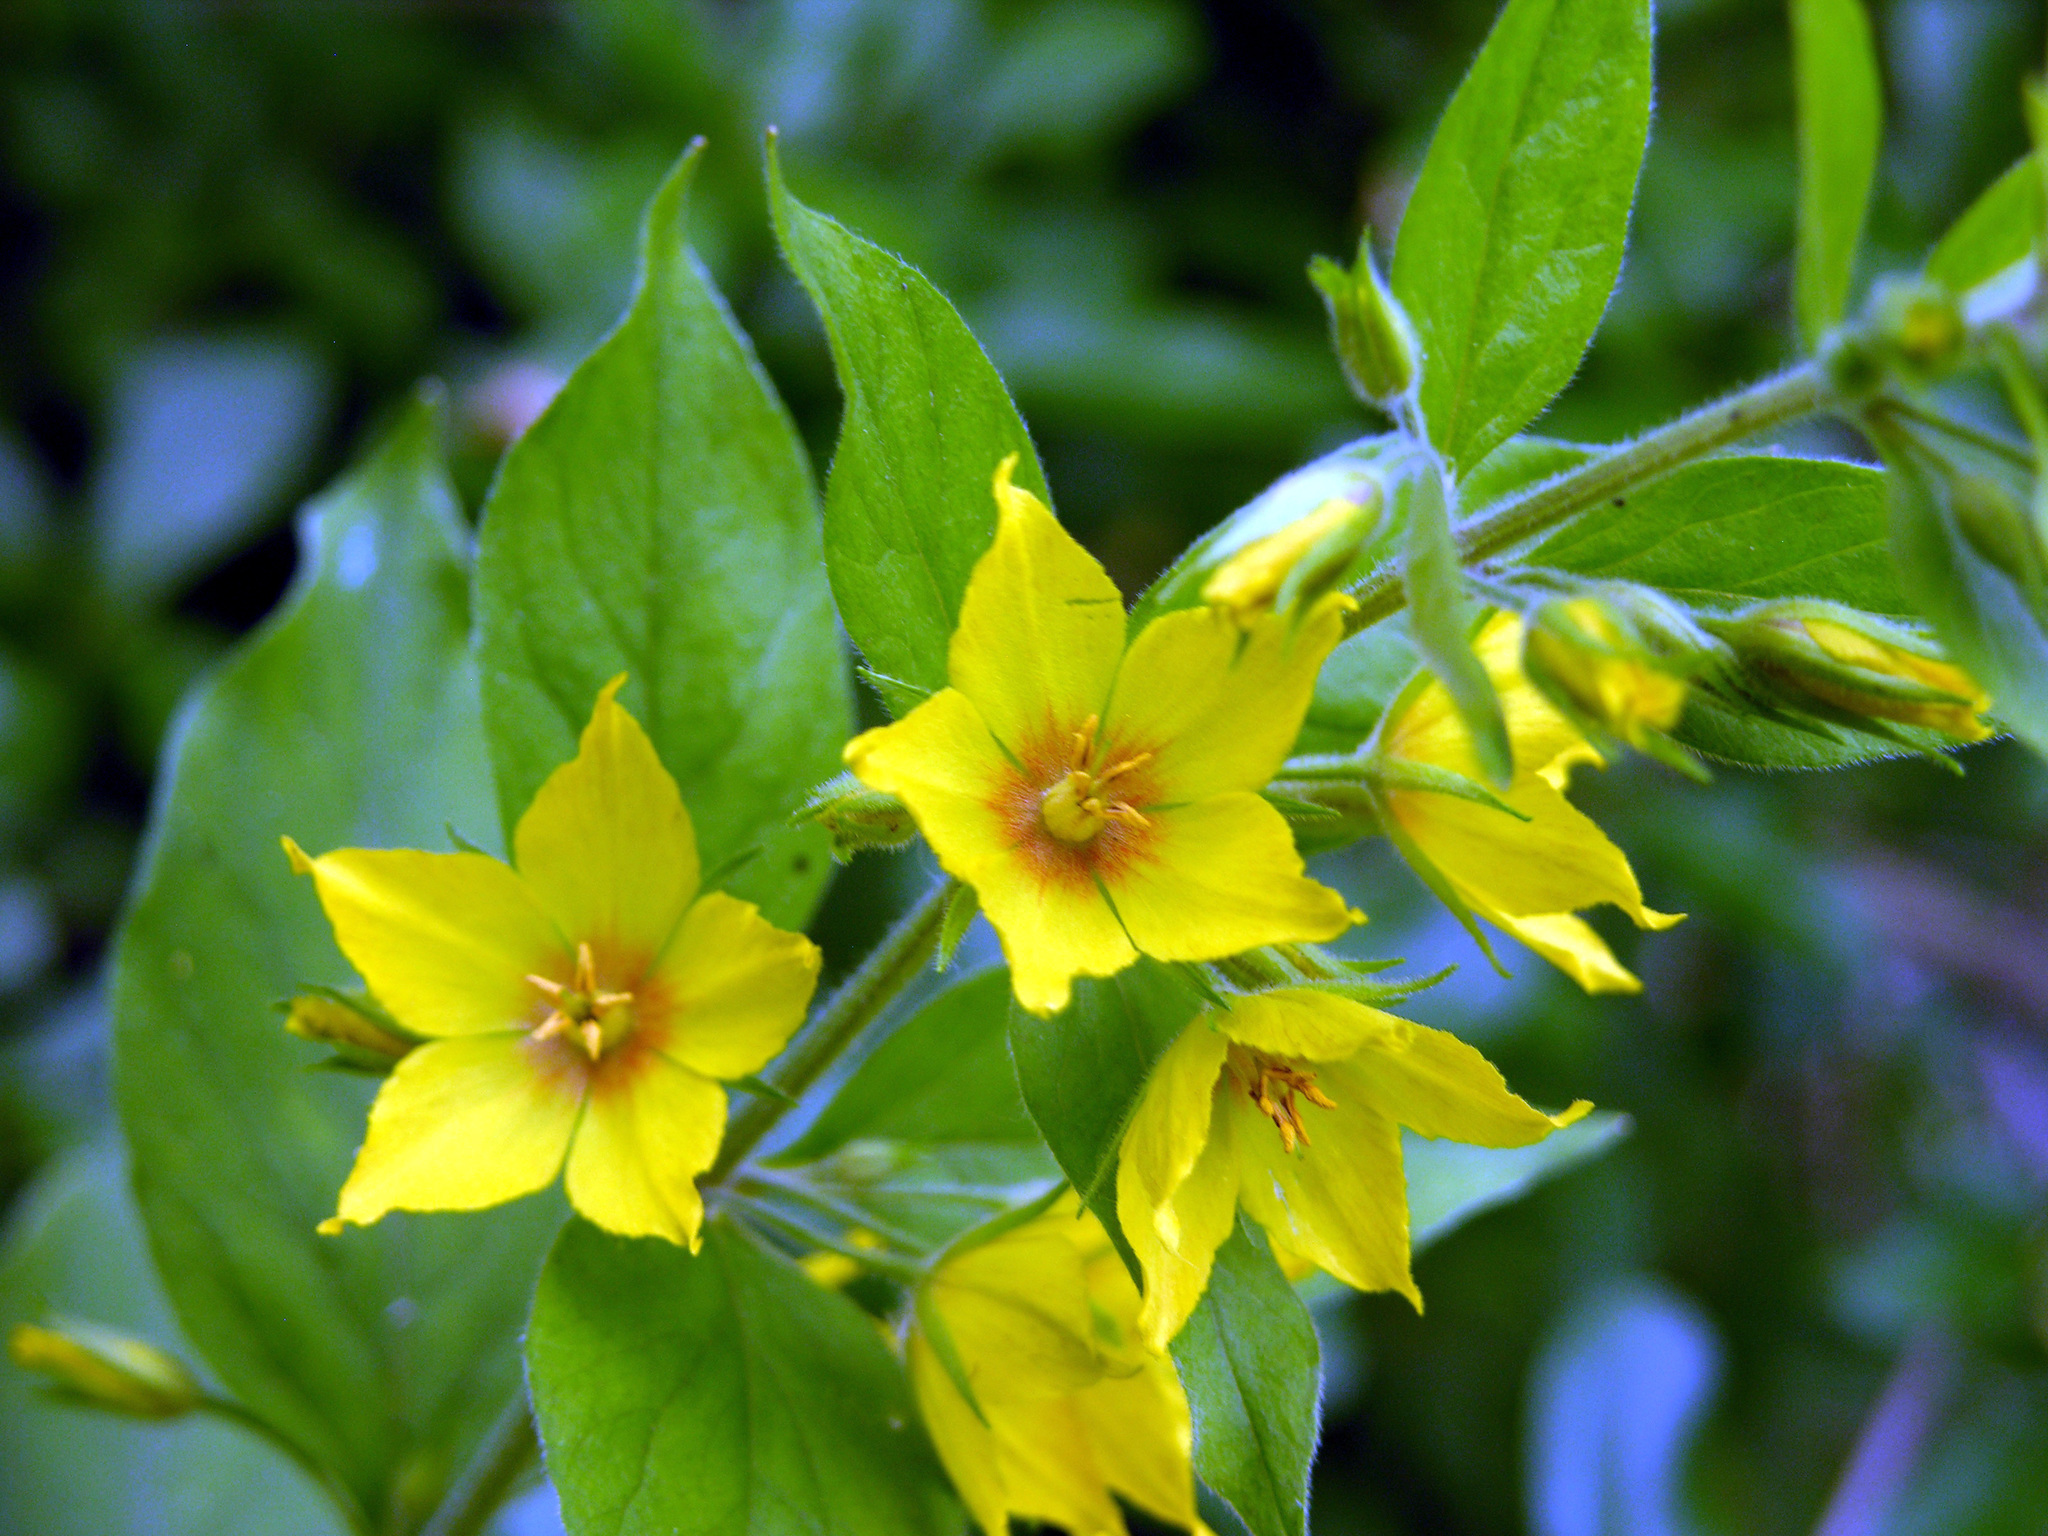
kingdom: Plantae
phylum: Tracheophyta
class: Magnoliopsida
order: Ericales
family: Primulaceae
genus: Lysimachia
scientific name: Lysimachia punctata
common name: Dotted loosestrife
